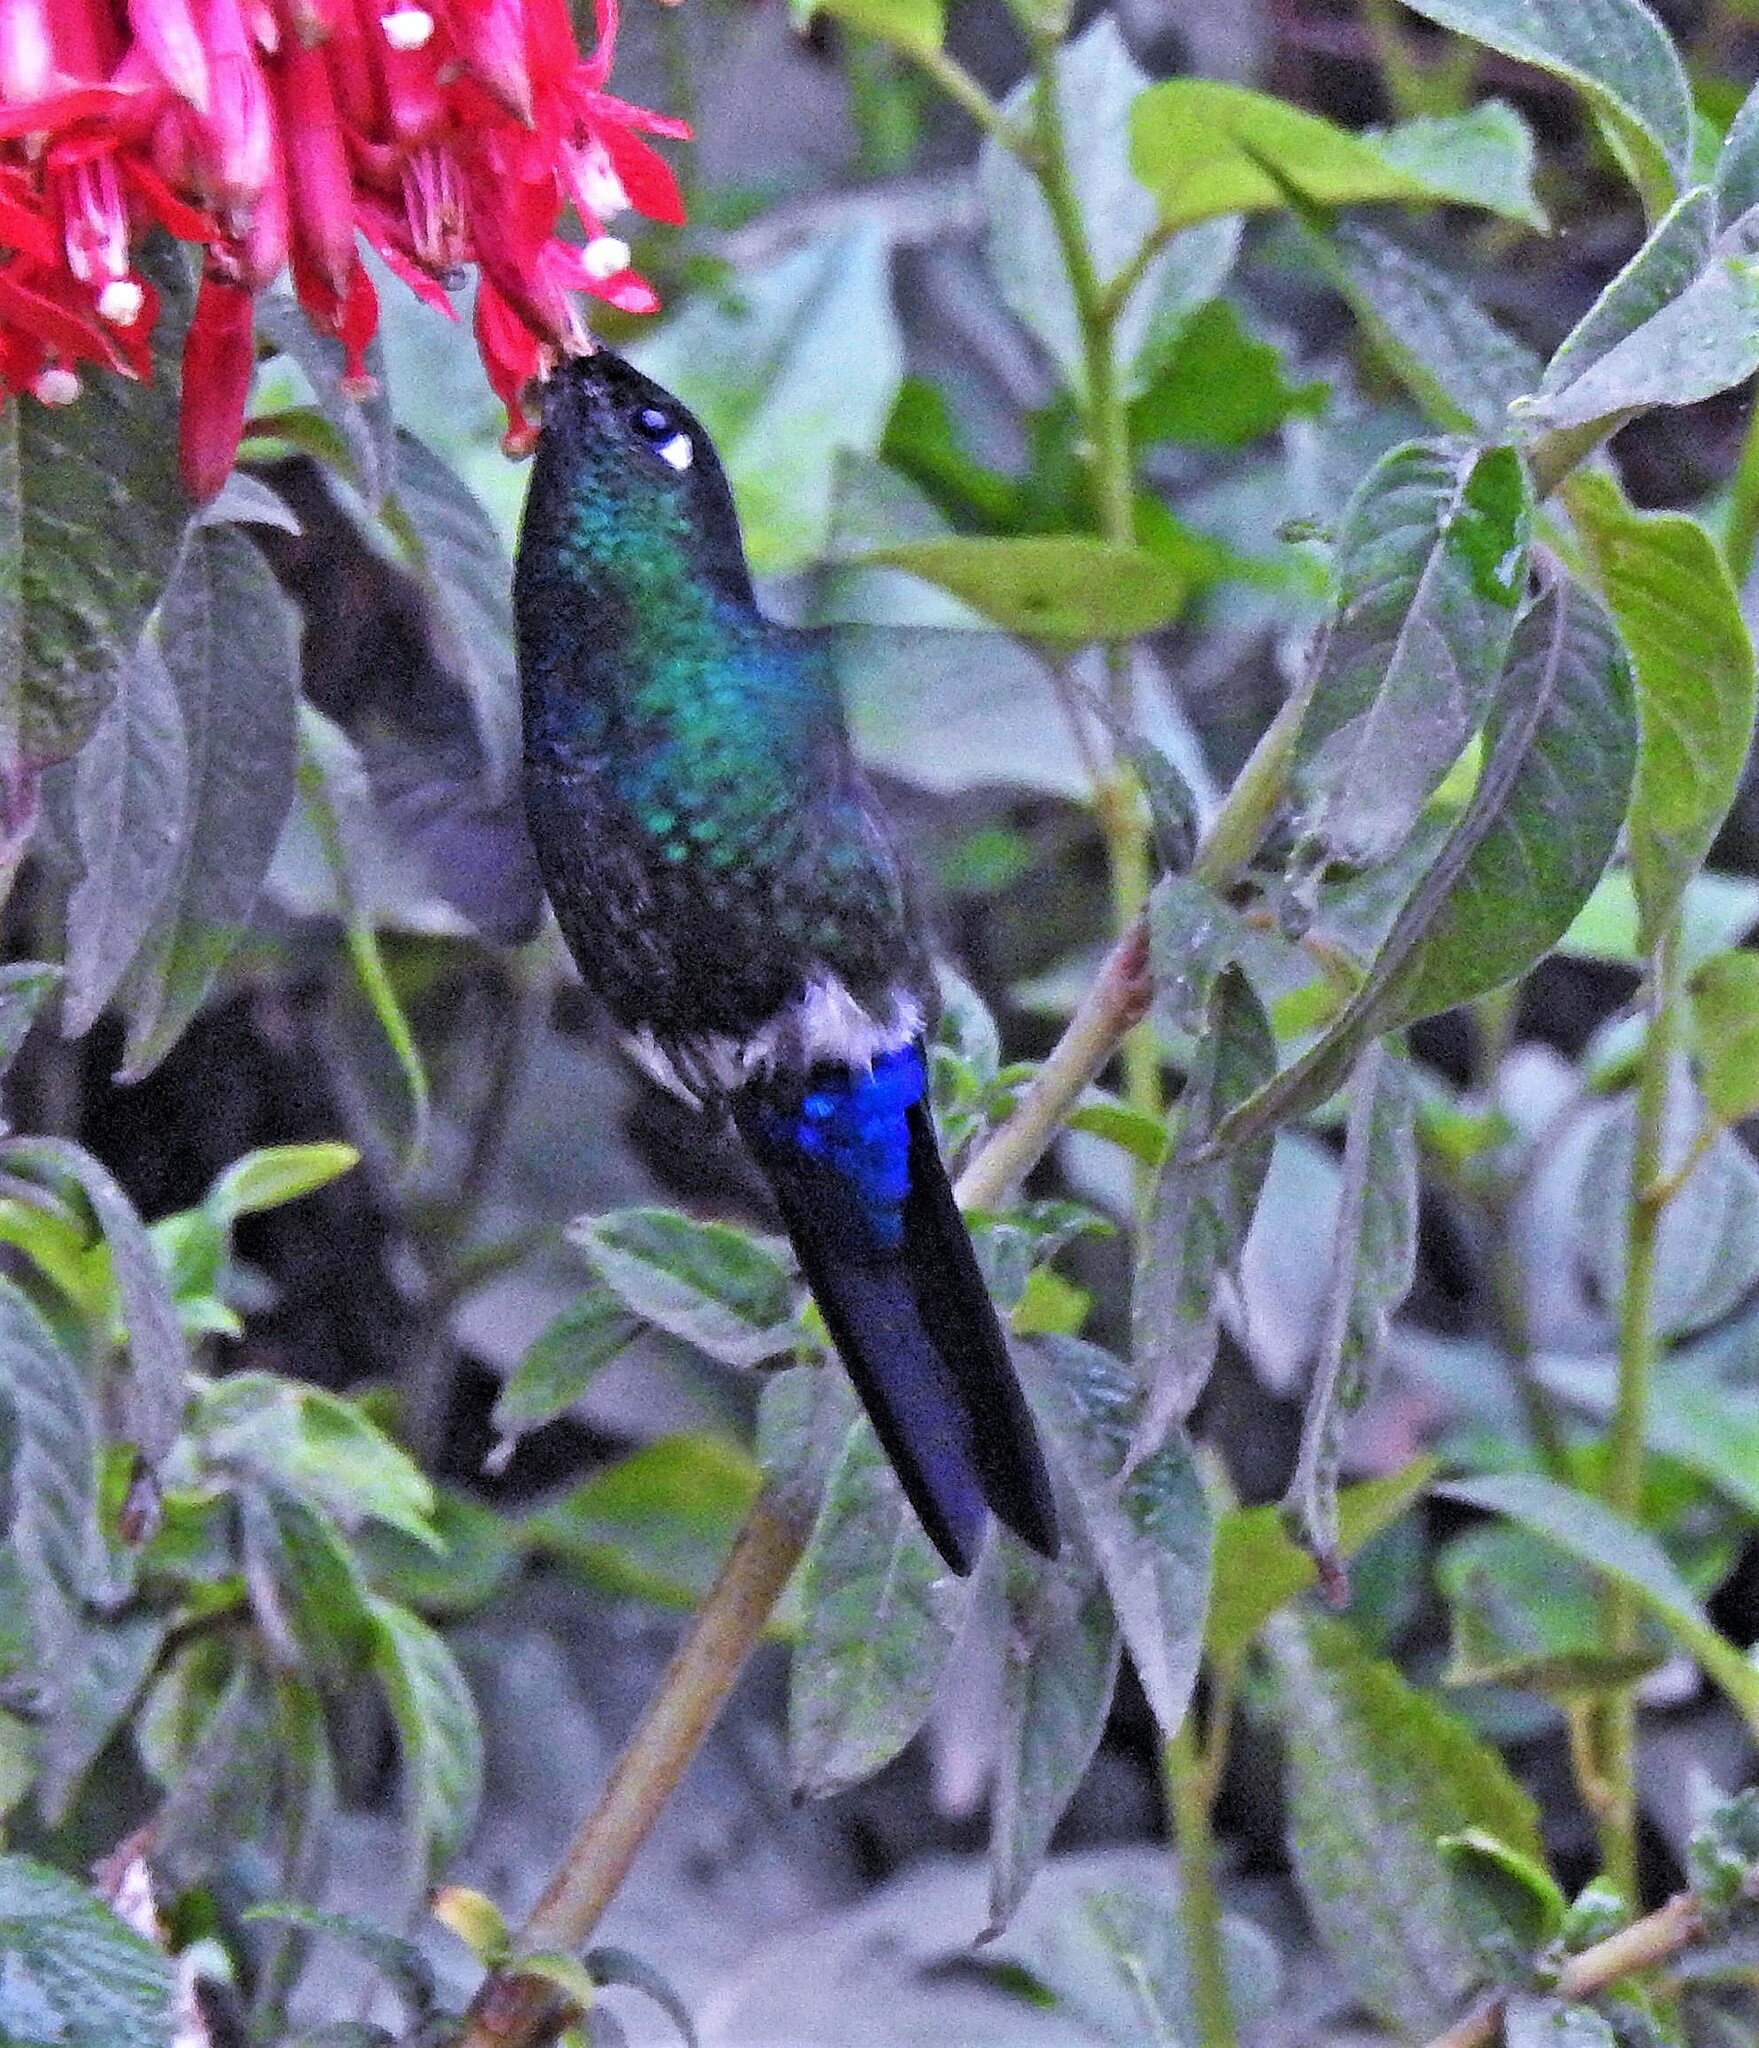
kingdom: Animalia
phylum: Chordata
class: Aves
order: Apodiformes
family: Trochilidae
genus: Eriocnemis
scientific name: Eriocnemis glaucopoides
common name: Blue-capped puffleg
